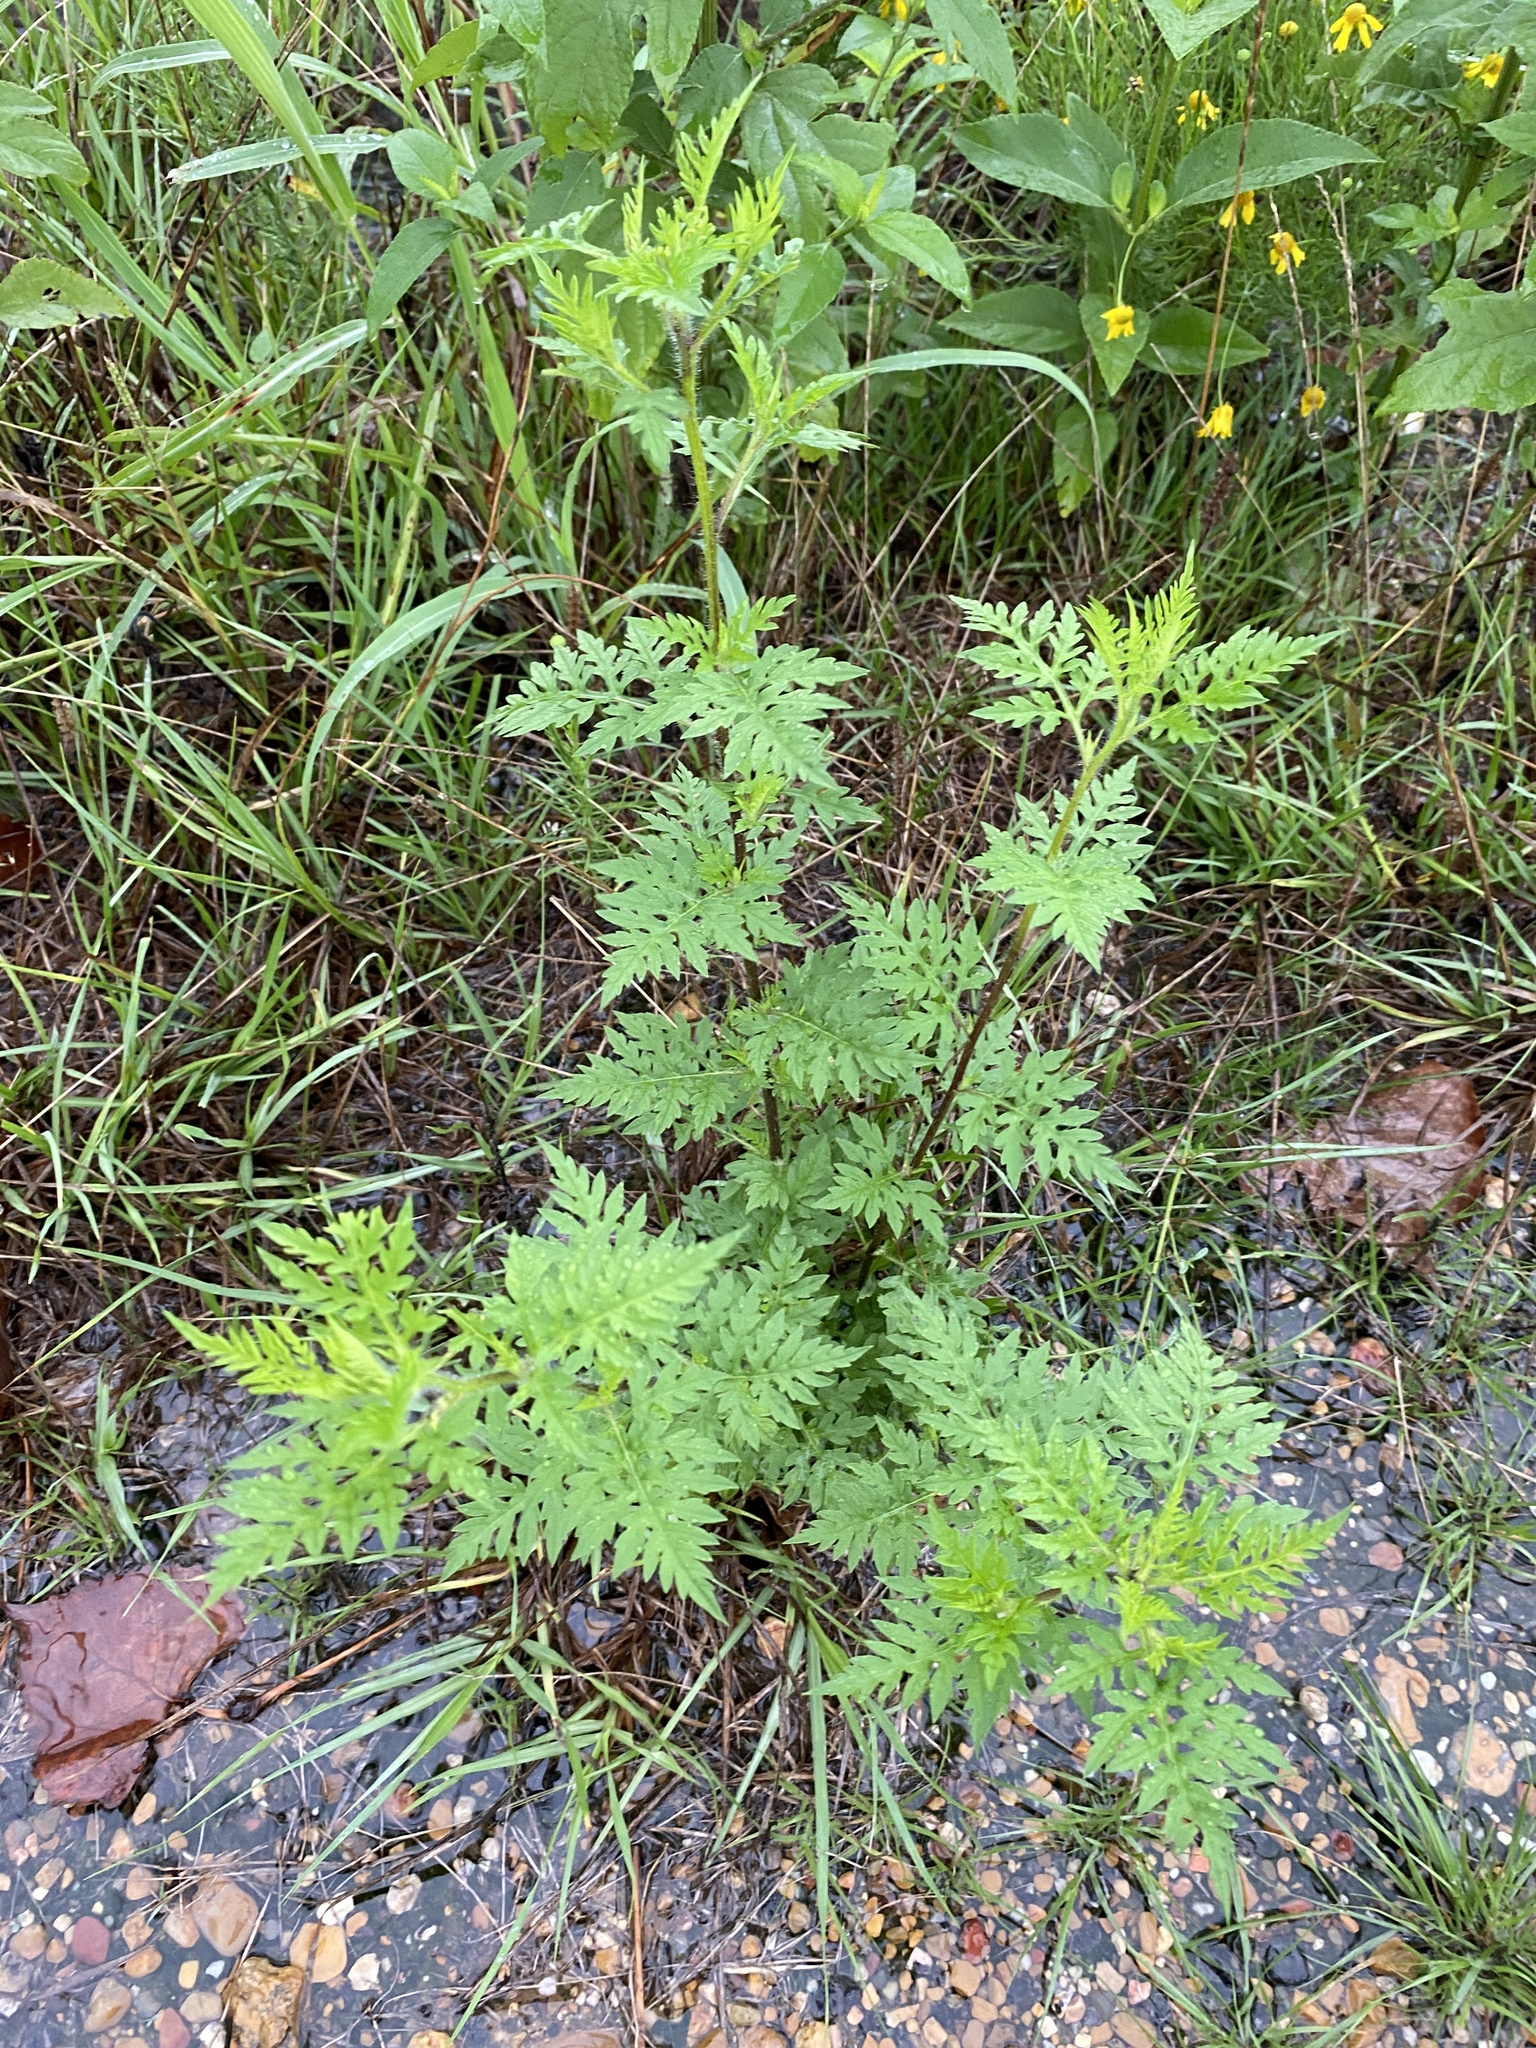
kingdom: Plantae
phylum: Tracheophyta
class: Magnoliopsida
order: Asterales
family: Asteraceae
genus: Ambrosia
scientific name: Ambrosia artemisiifolia
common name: Annual ragweed
